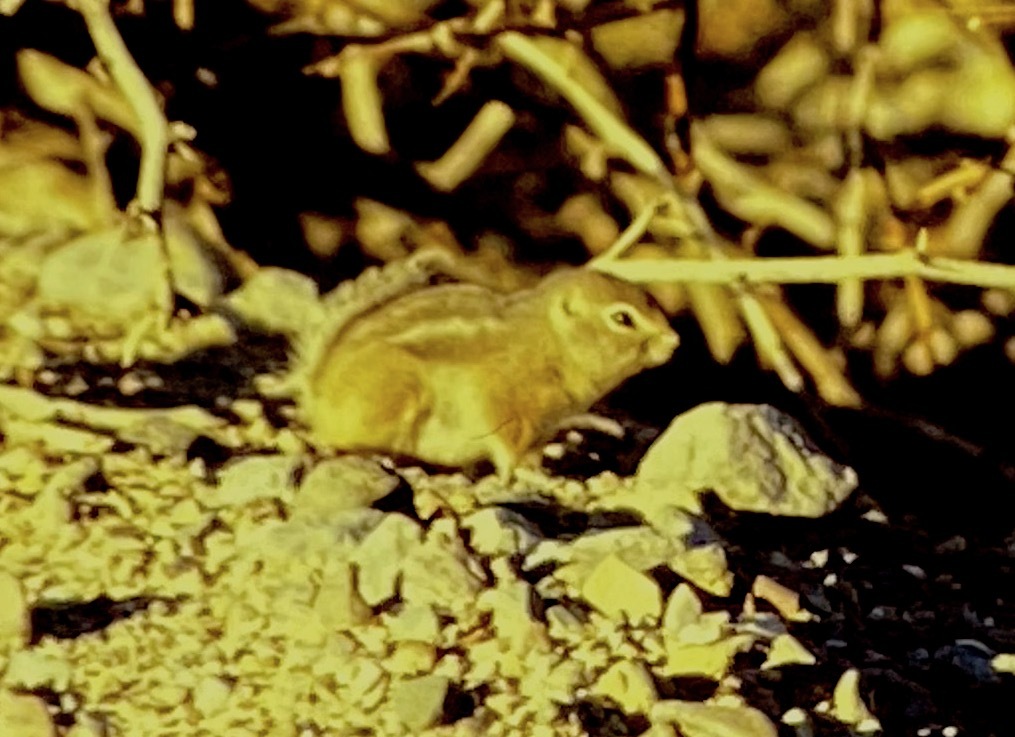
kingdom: Animalia
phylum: Chordata
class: Mammalia
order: Rodentia
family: Sciuridae
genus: Ammospermophilus
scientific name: Ammospermophilus leucurus
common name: White-tailed antelope squirrel
